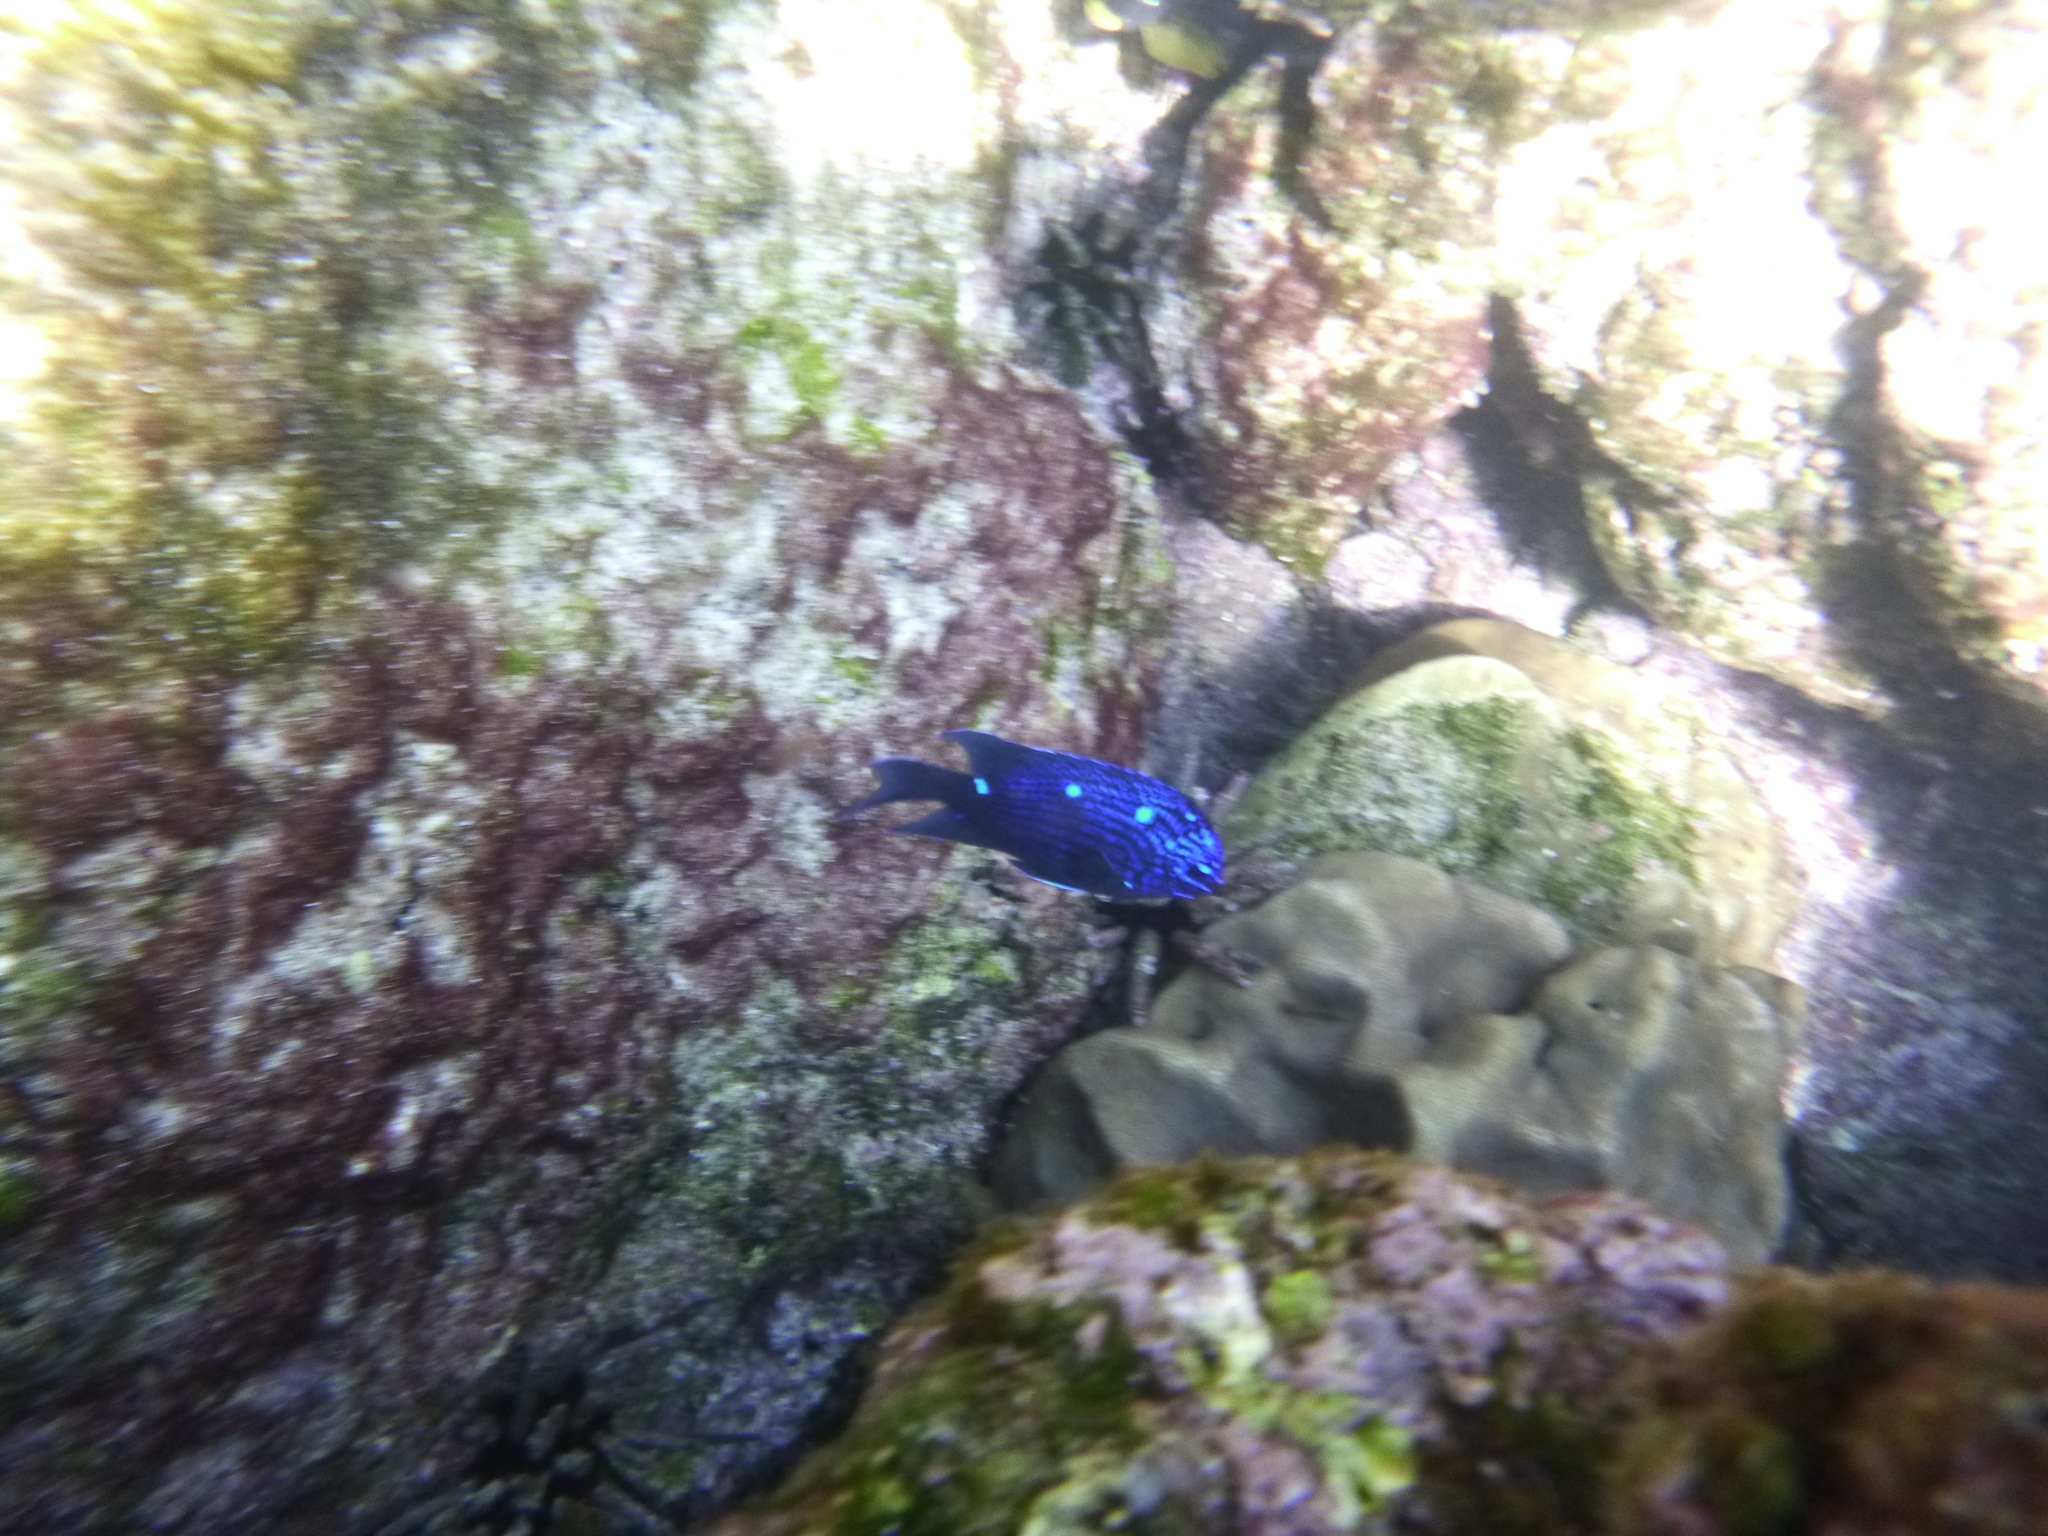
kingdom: Animalia
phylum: Chordata
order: Perciformes
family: Pomacentridae
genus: Microspathodon
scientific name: Microspathodon dorsalis
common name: Giant damselfish
